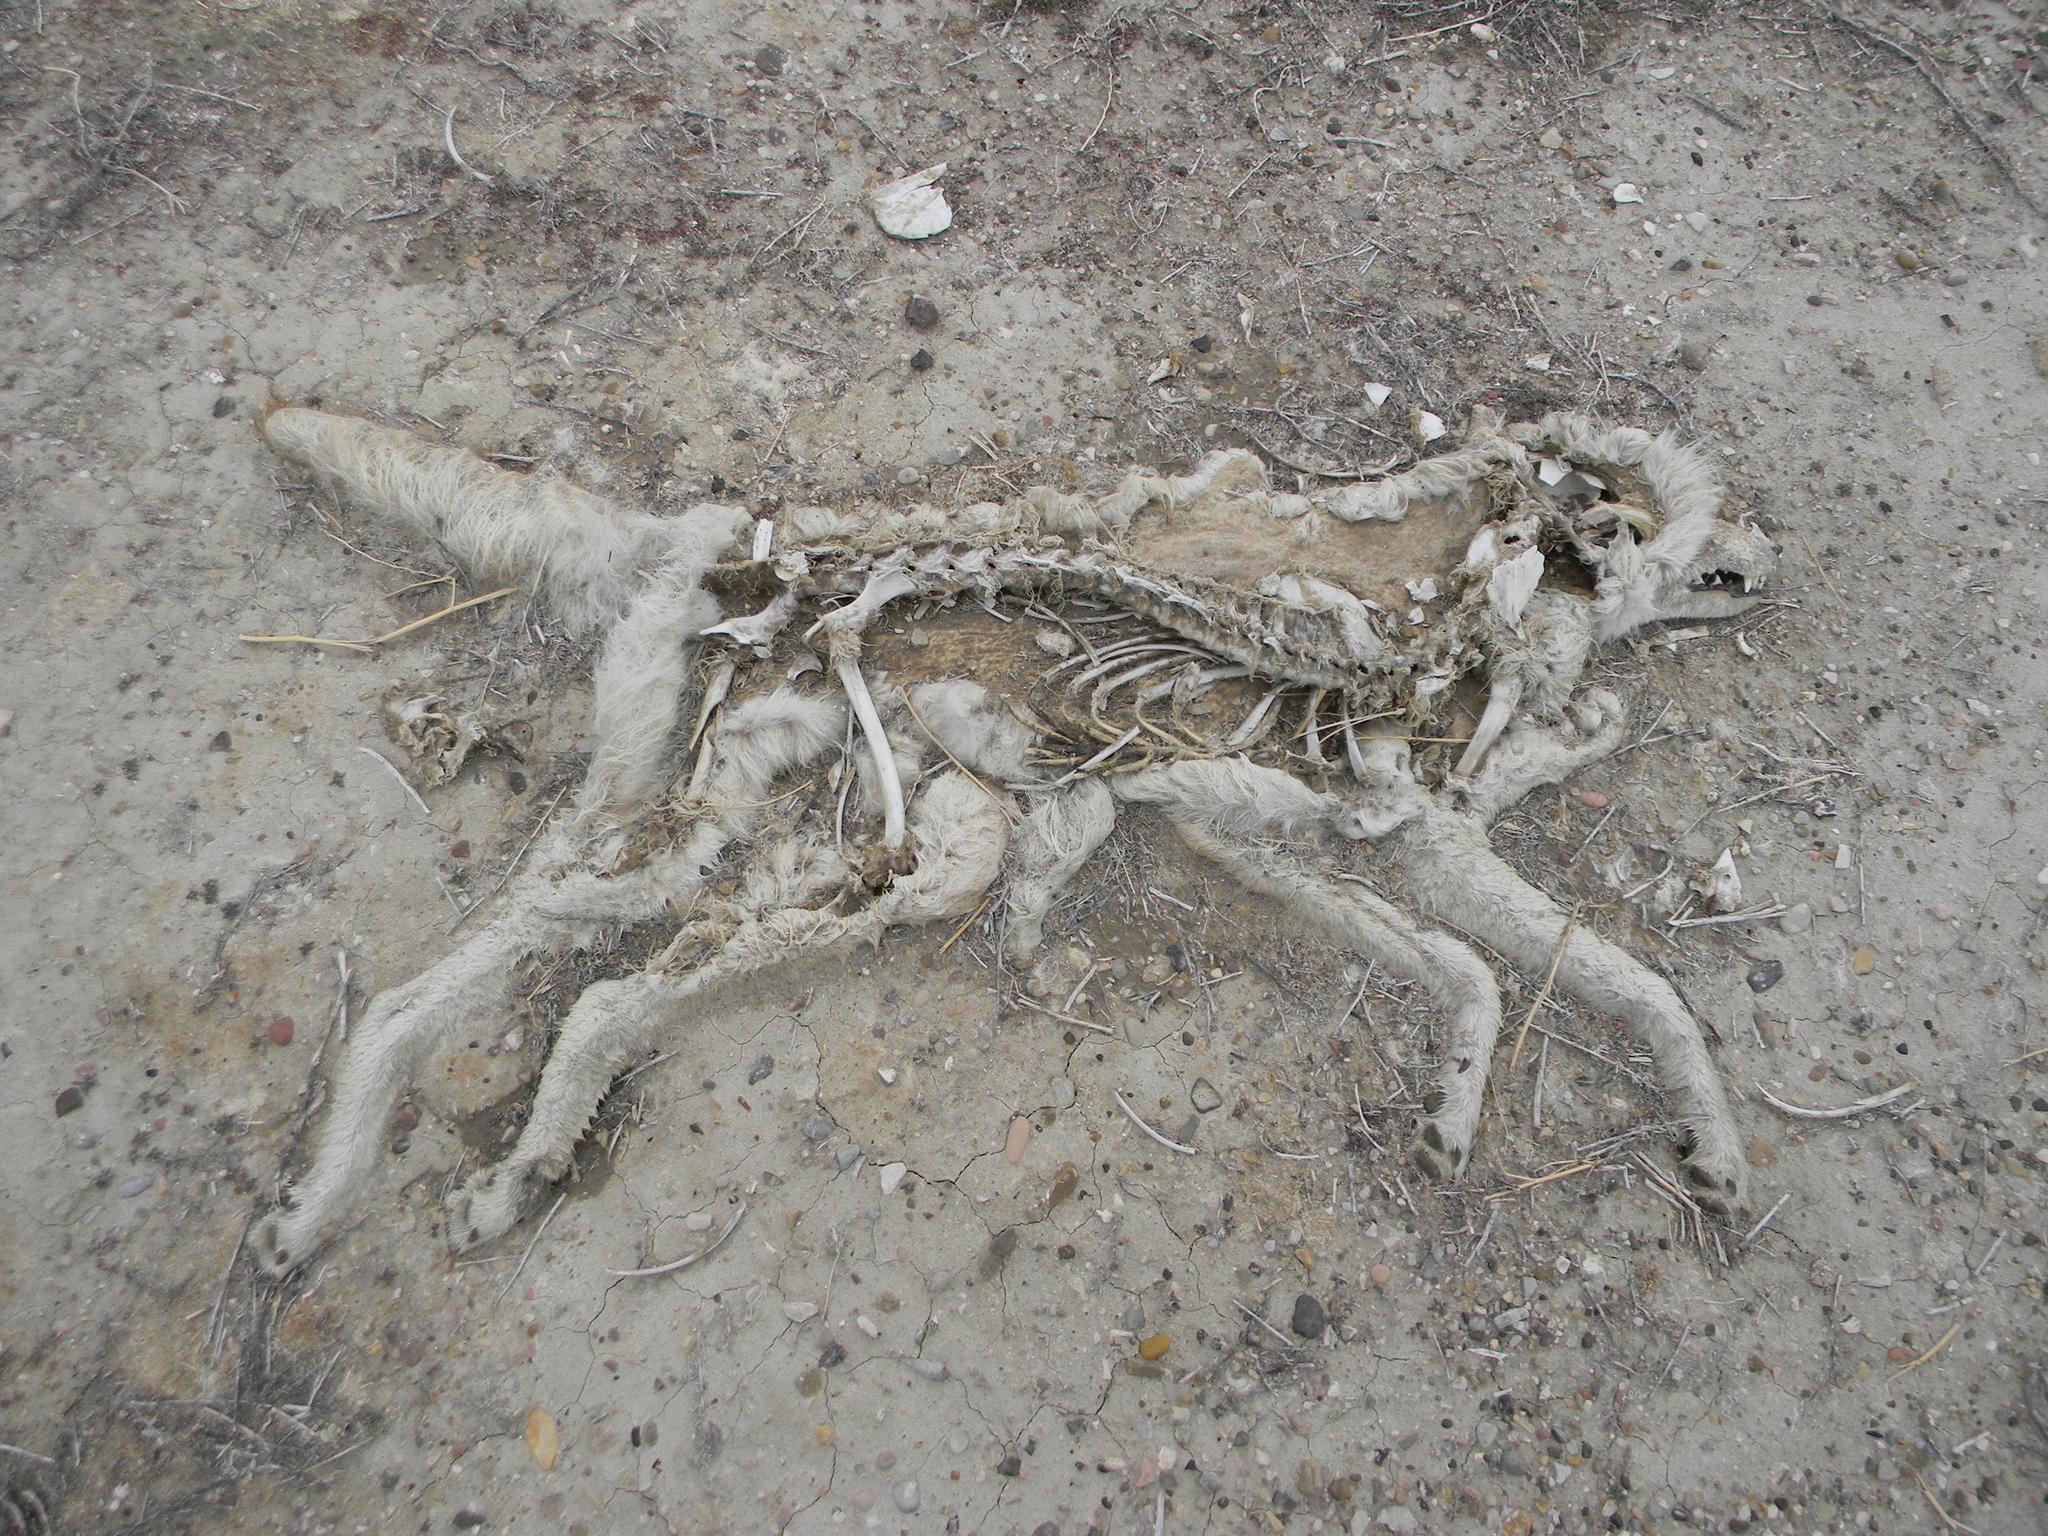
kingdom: Animalia
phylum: Chordata
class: Mammalia
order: Carnivora
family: Canidae
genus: Canis
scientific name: Canis latrans
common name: Coyote
